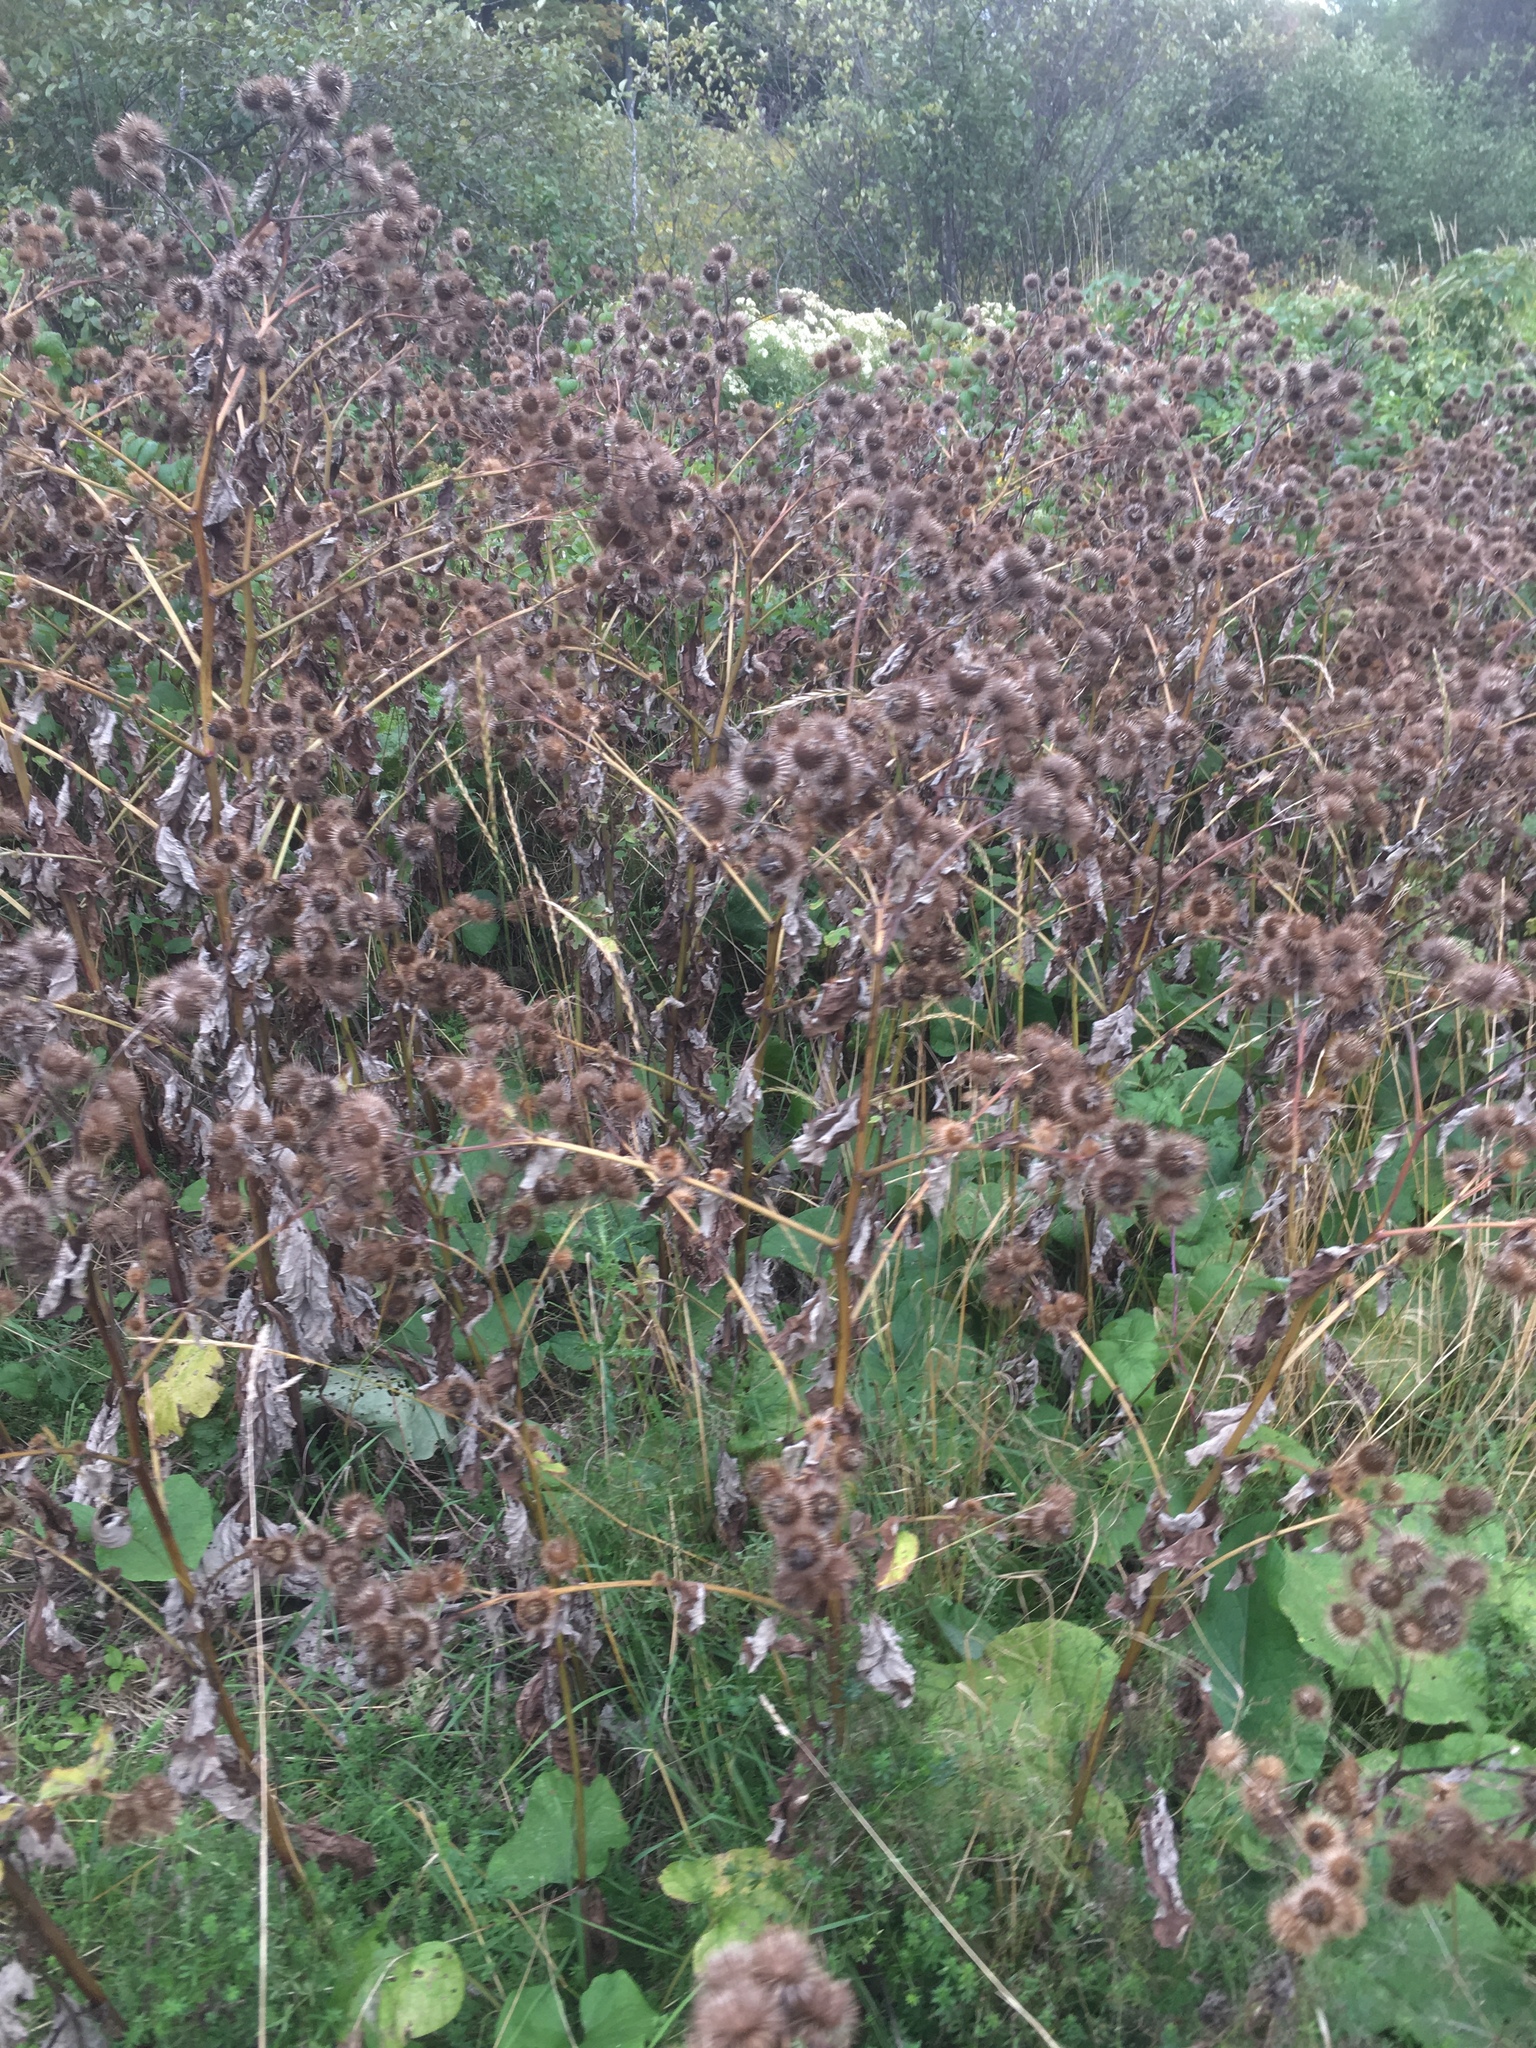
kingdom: Plantae
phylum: Tracheophyta
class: Magnoliopsida
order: Asterales
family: Asteraceae
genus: Arctium
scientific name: Arctium lappa
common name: Greater burdock
